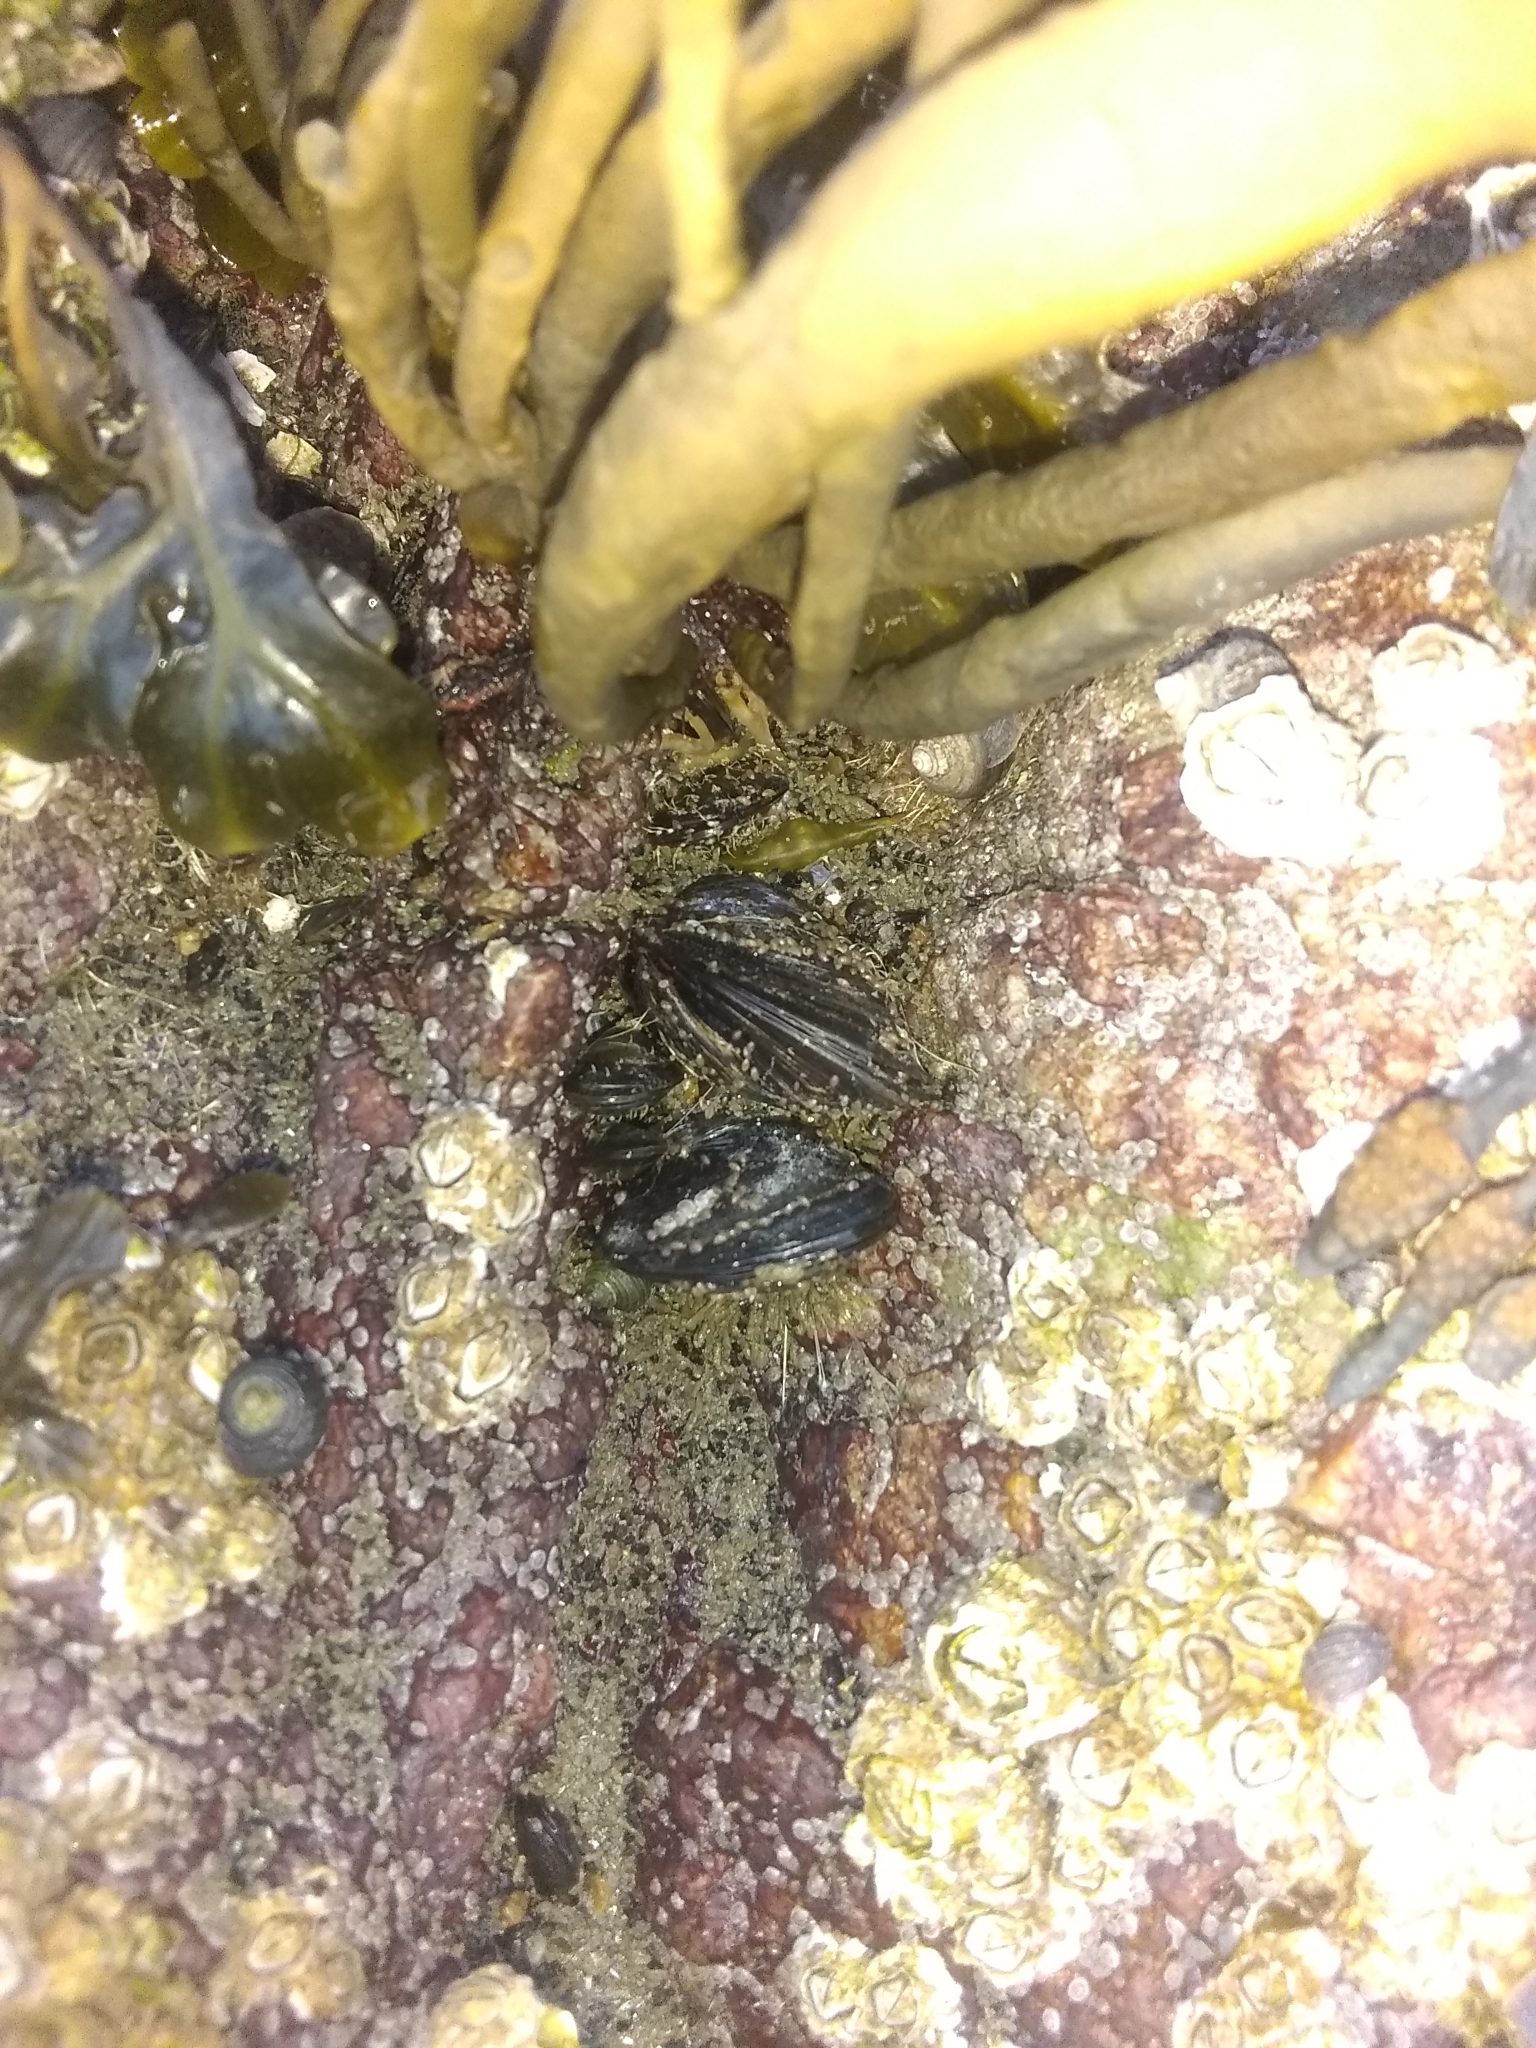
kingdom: Animalia
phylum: Mollusca
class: Bivalvia
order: Mytilida
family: Mytilidae
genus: Mytilus
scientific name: Mytilus edulis
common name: Blue mussel
